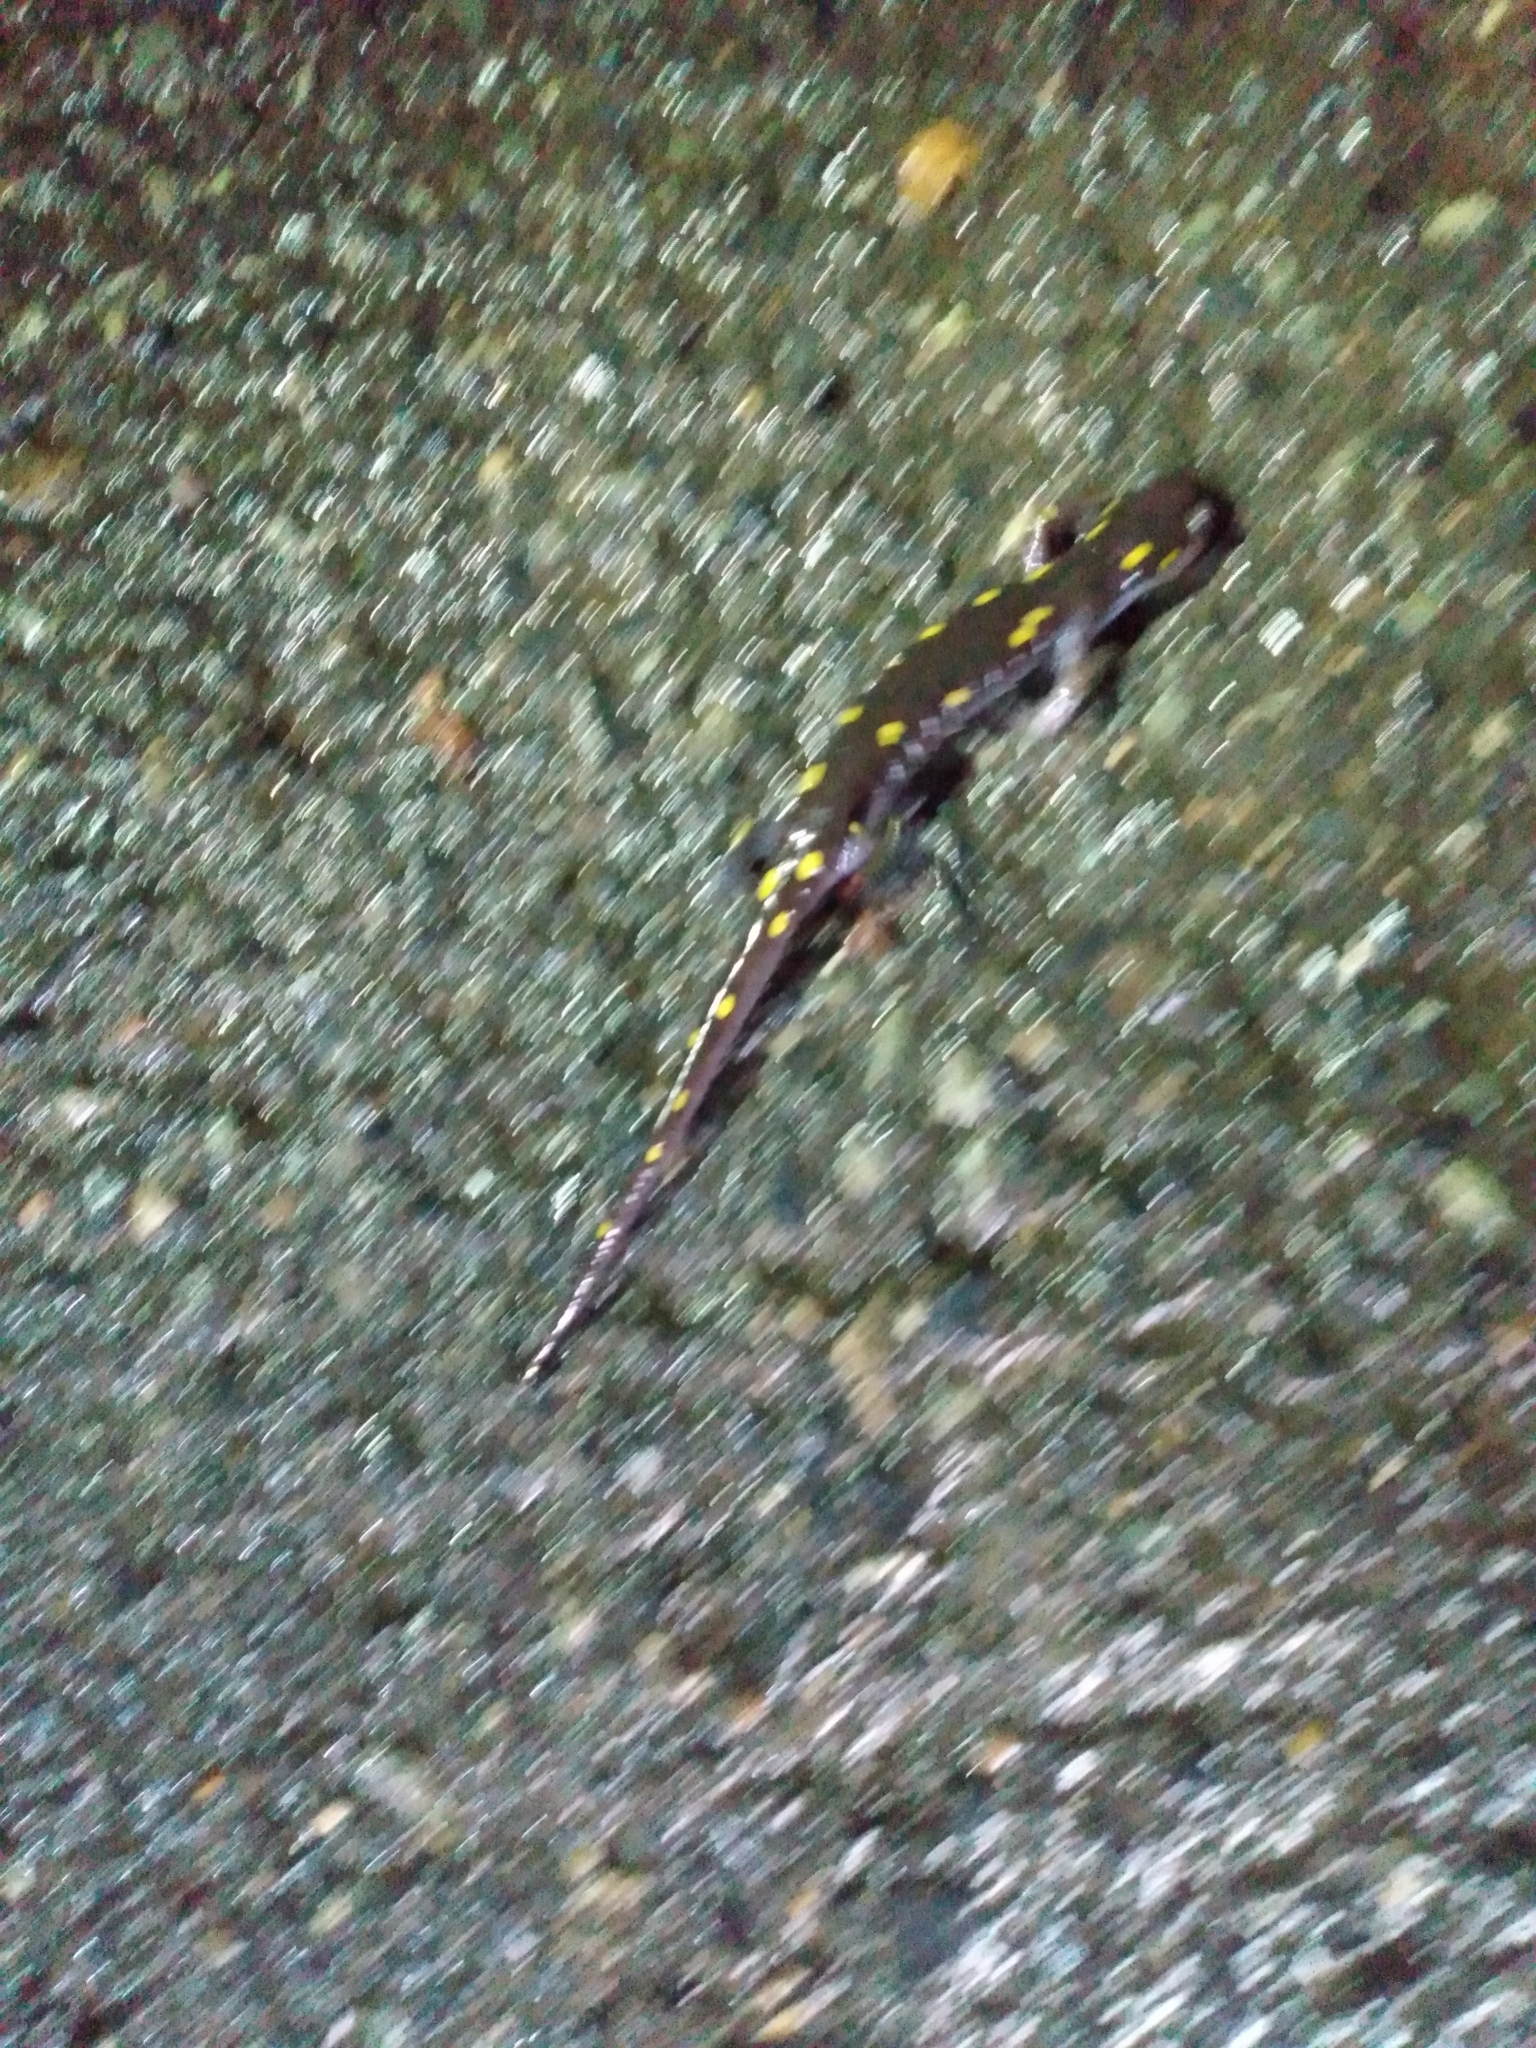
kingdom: Animalia
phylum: Chordata
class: Amphibia
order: Caudata
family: Ambystomatidae
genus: Ambystoma
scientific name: Ambystoma maculatum
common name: Spotted salamander
